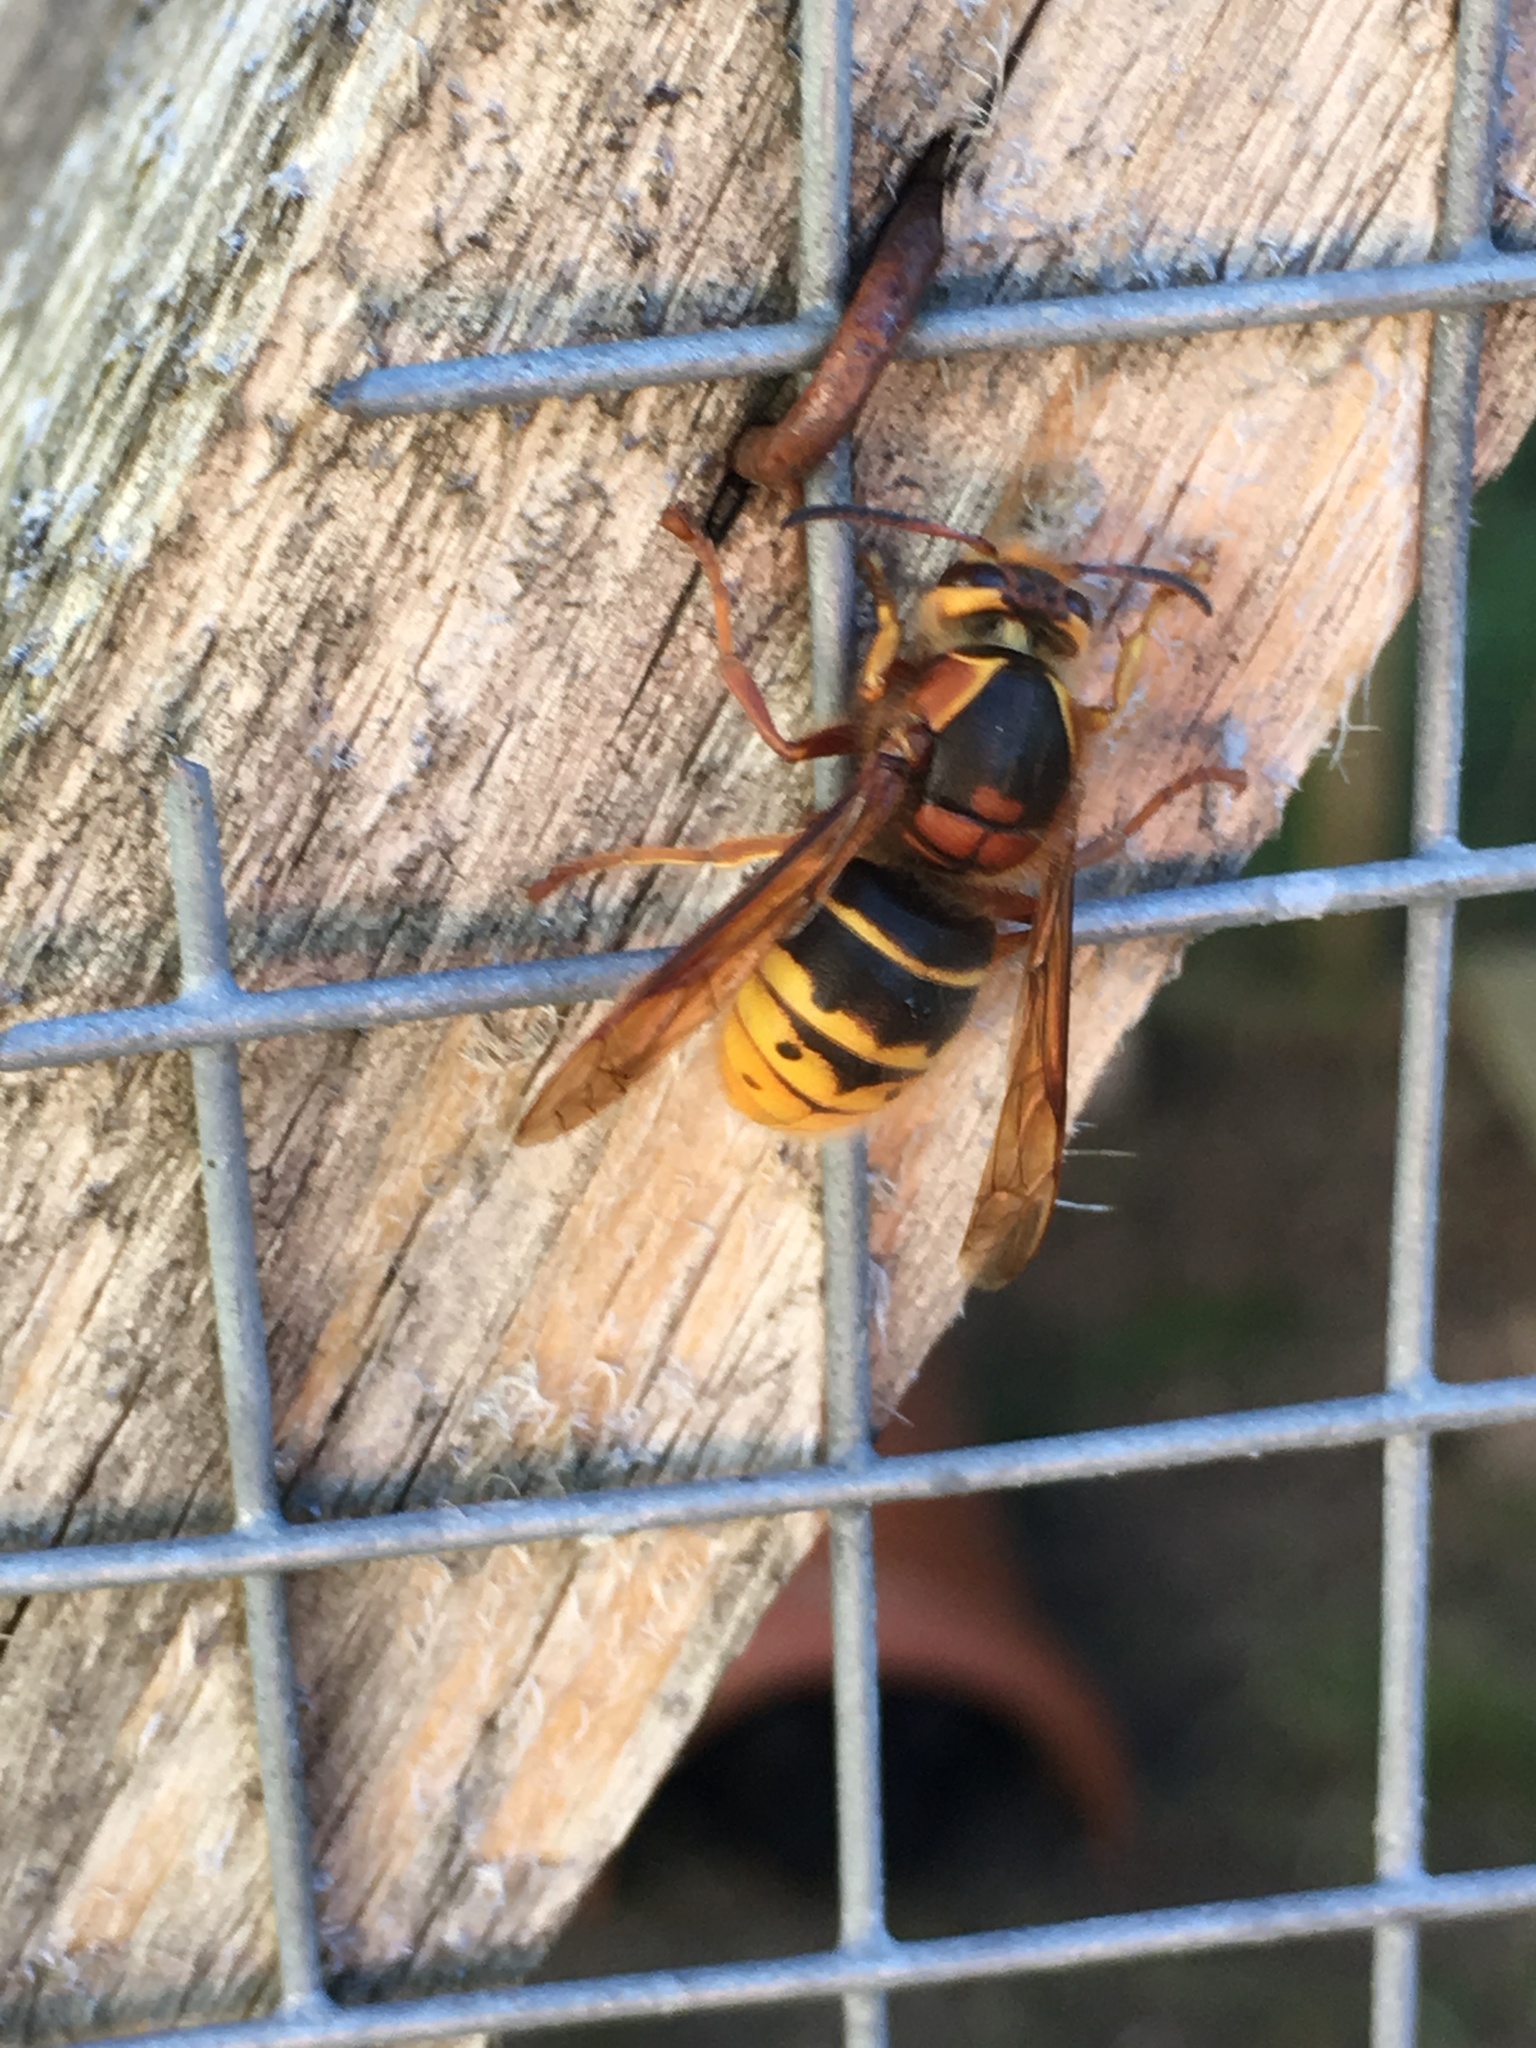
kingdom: Animalia
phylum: Arthropoda
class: Insecta
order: Hymenoptera
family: Vespidae
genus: Dolichovespula
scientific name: Dolichovespula media
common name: Median wasp
